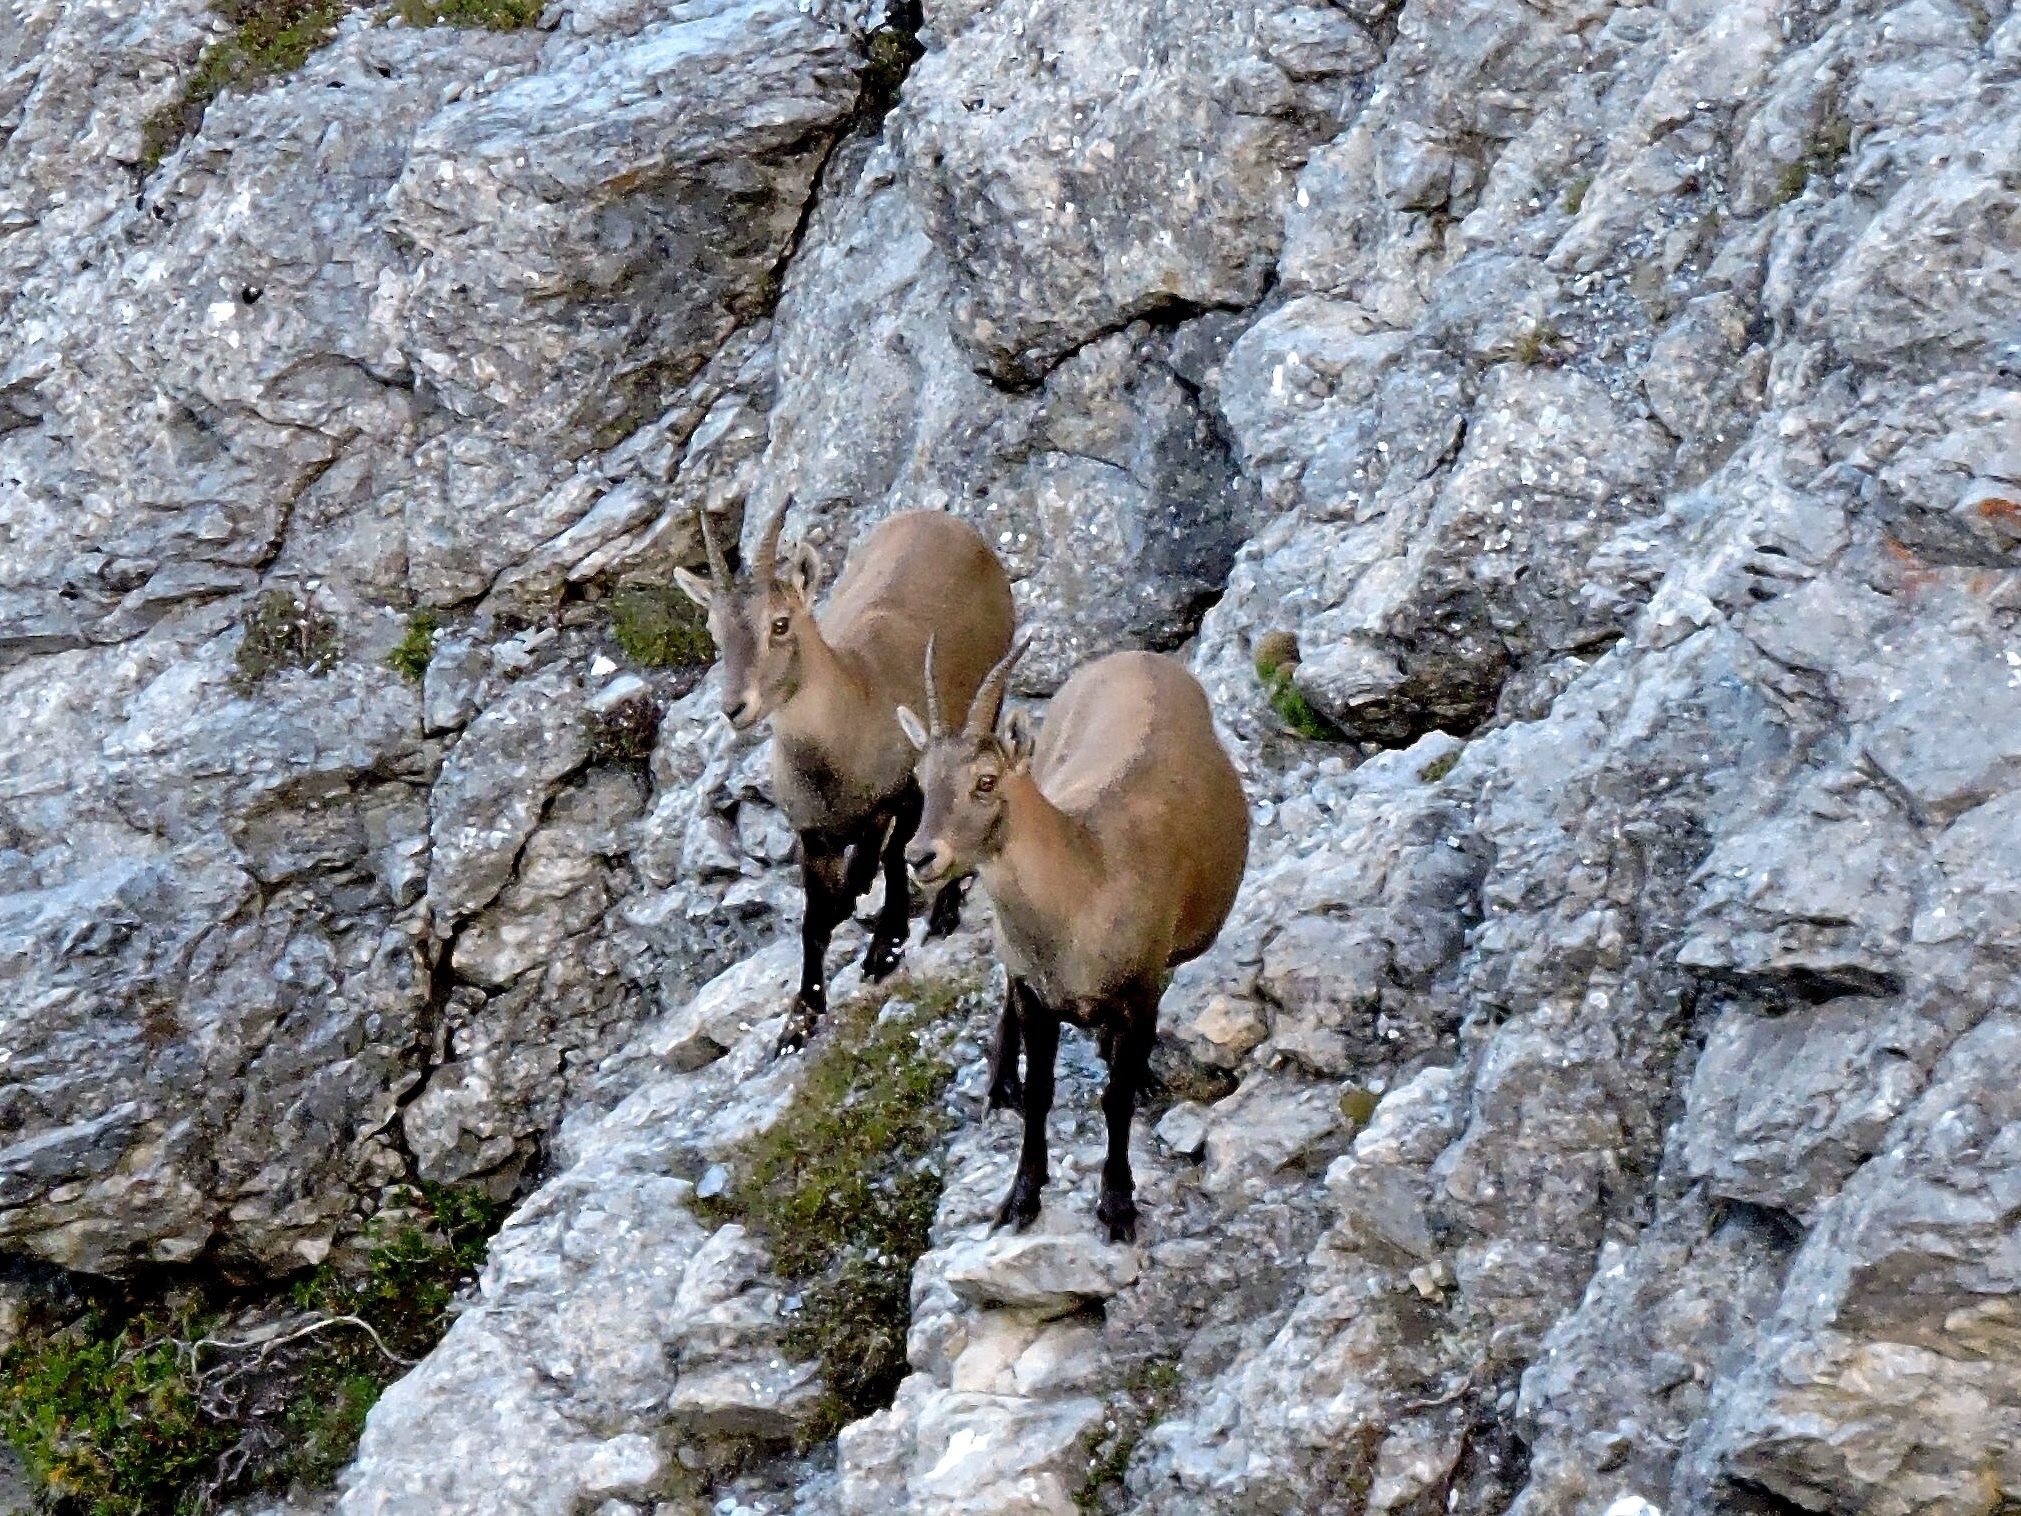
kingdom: Animalia
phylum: Chordata
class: Mammalia
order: Artiodactyla
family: Bovidae
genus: Capra
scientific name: Capra ibex
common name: Alpine ibex
